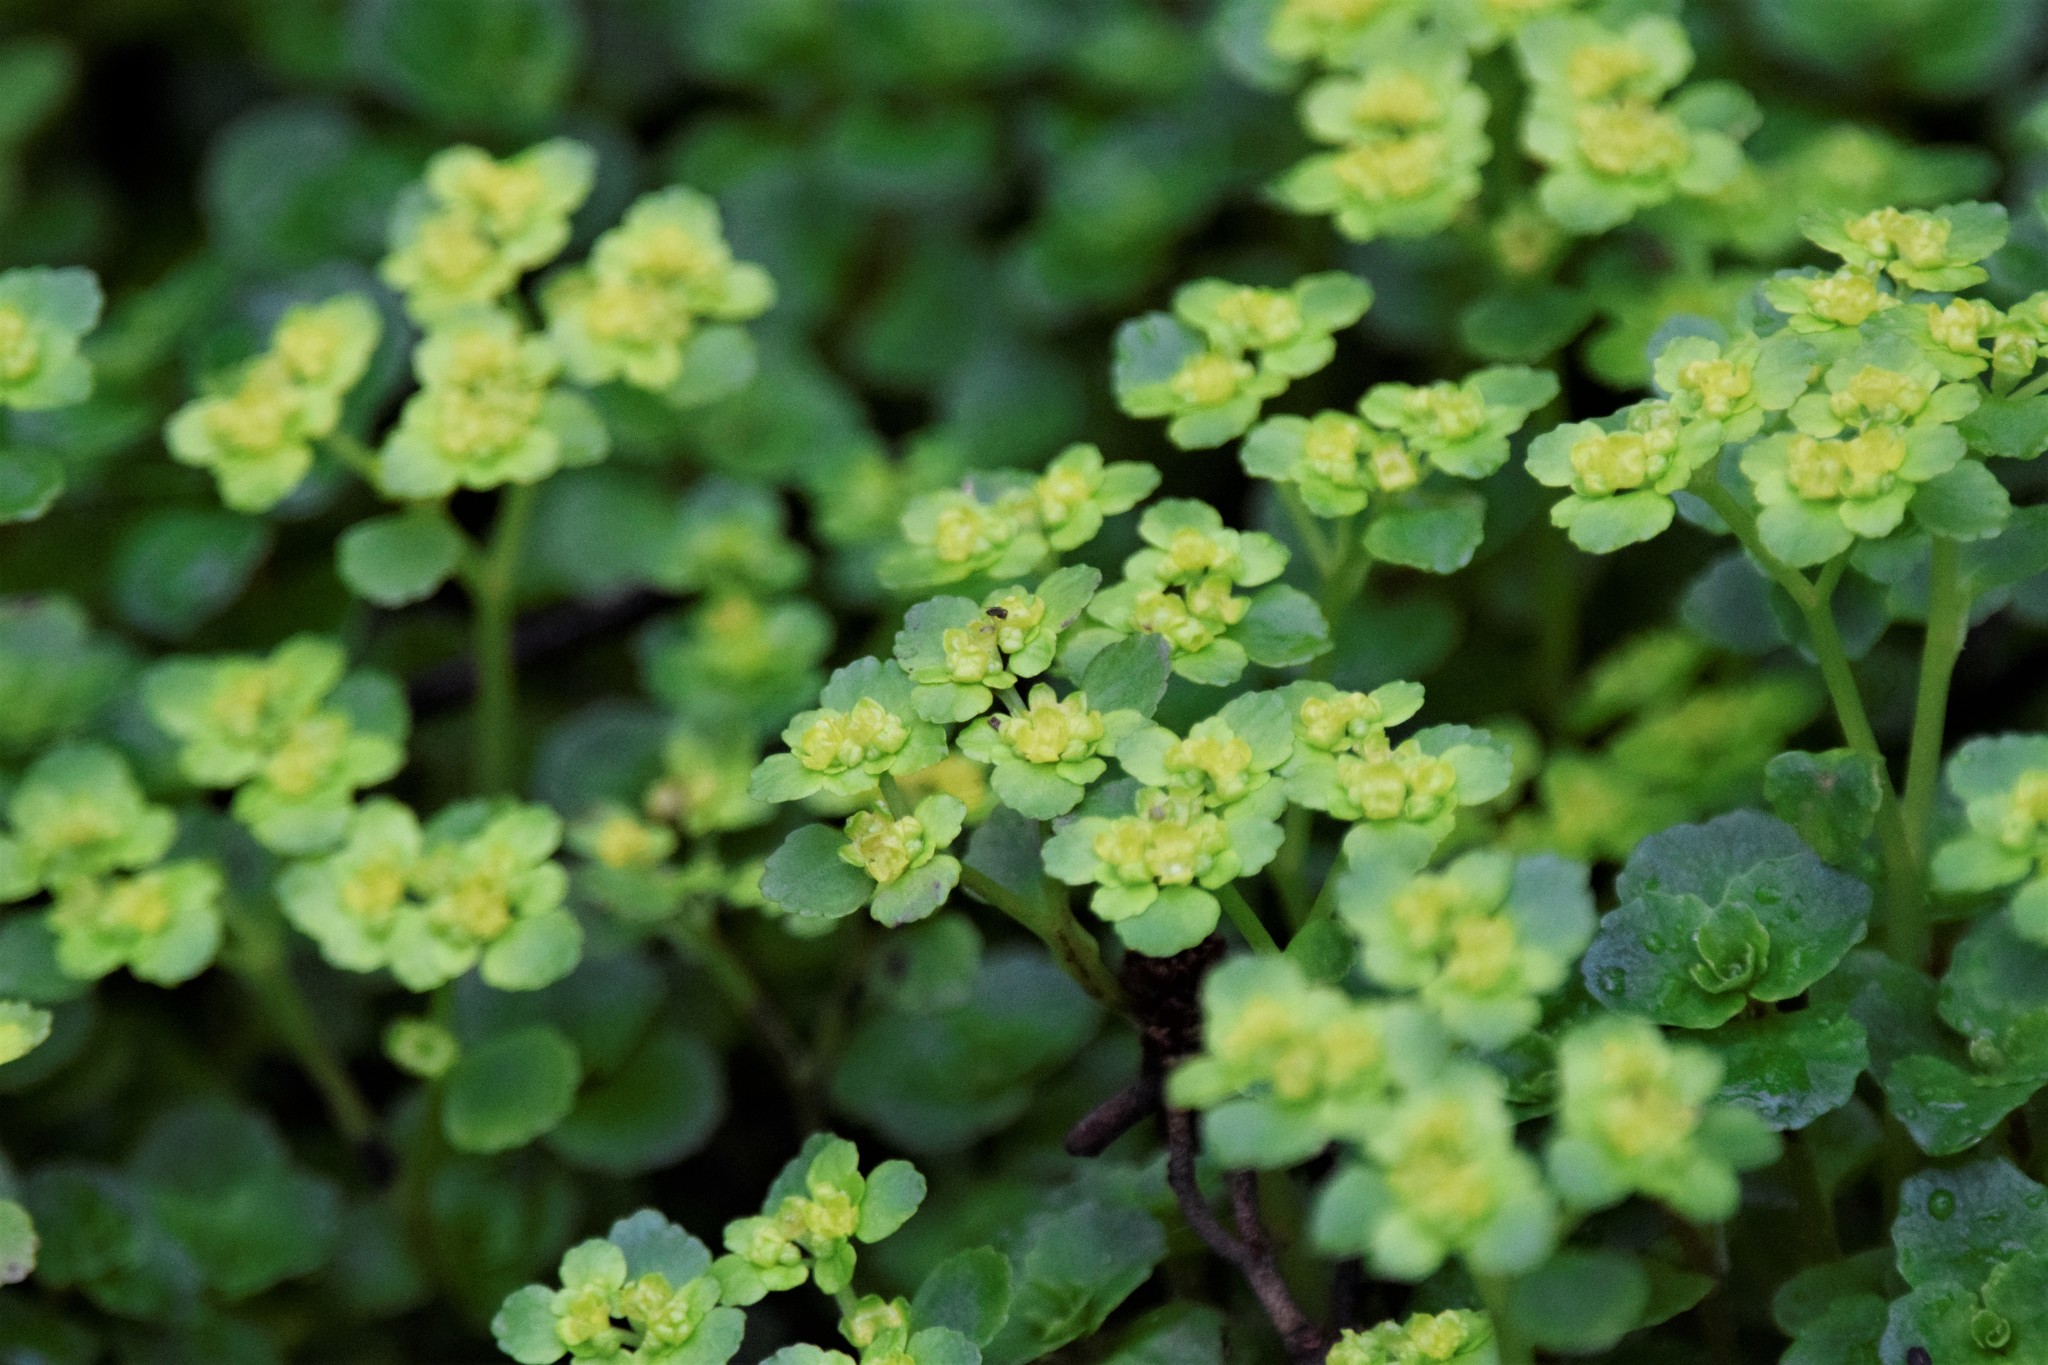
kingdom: Plantae
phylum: Tracheophyta
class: Magnoliopsida
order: Saxifragales
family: Saxifragaceae
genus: Chrysosplenium
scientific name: Chrysosplenium oppositifolium
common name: Opposite-leaved golden-saxifrage
